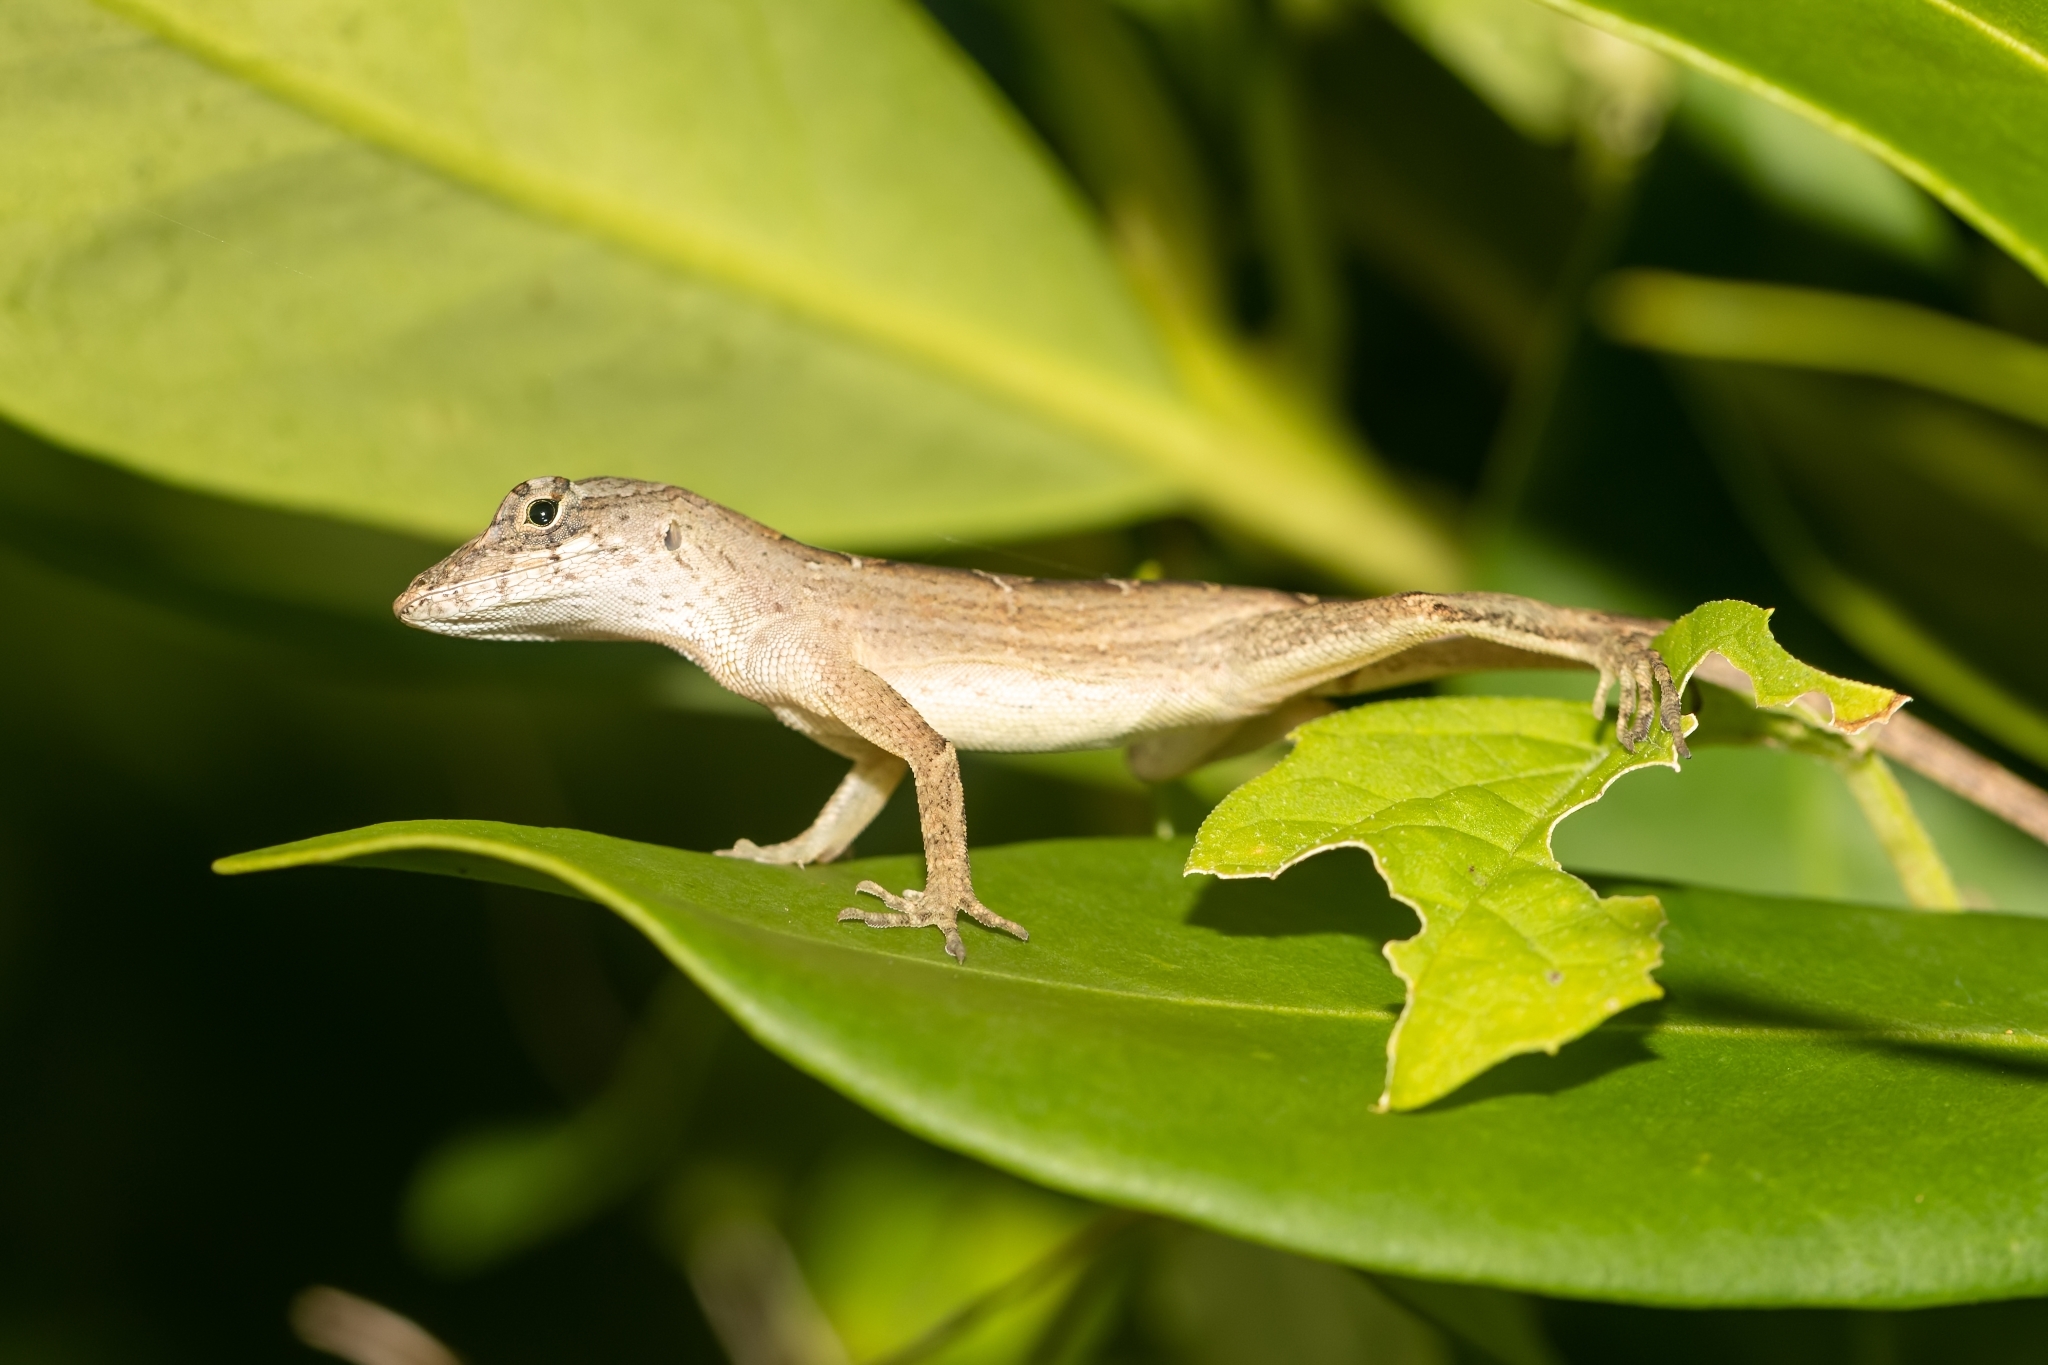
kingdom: Animalia
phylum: Chordata
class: Squamata
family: Dactyloidae
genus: Anolis
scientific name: Anolis sagrei
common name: Brown anole
